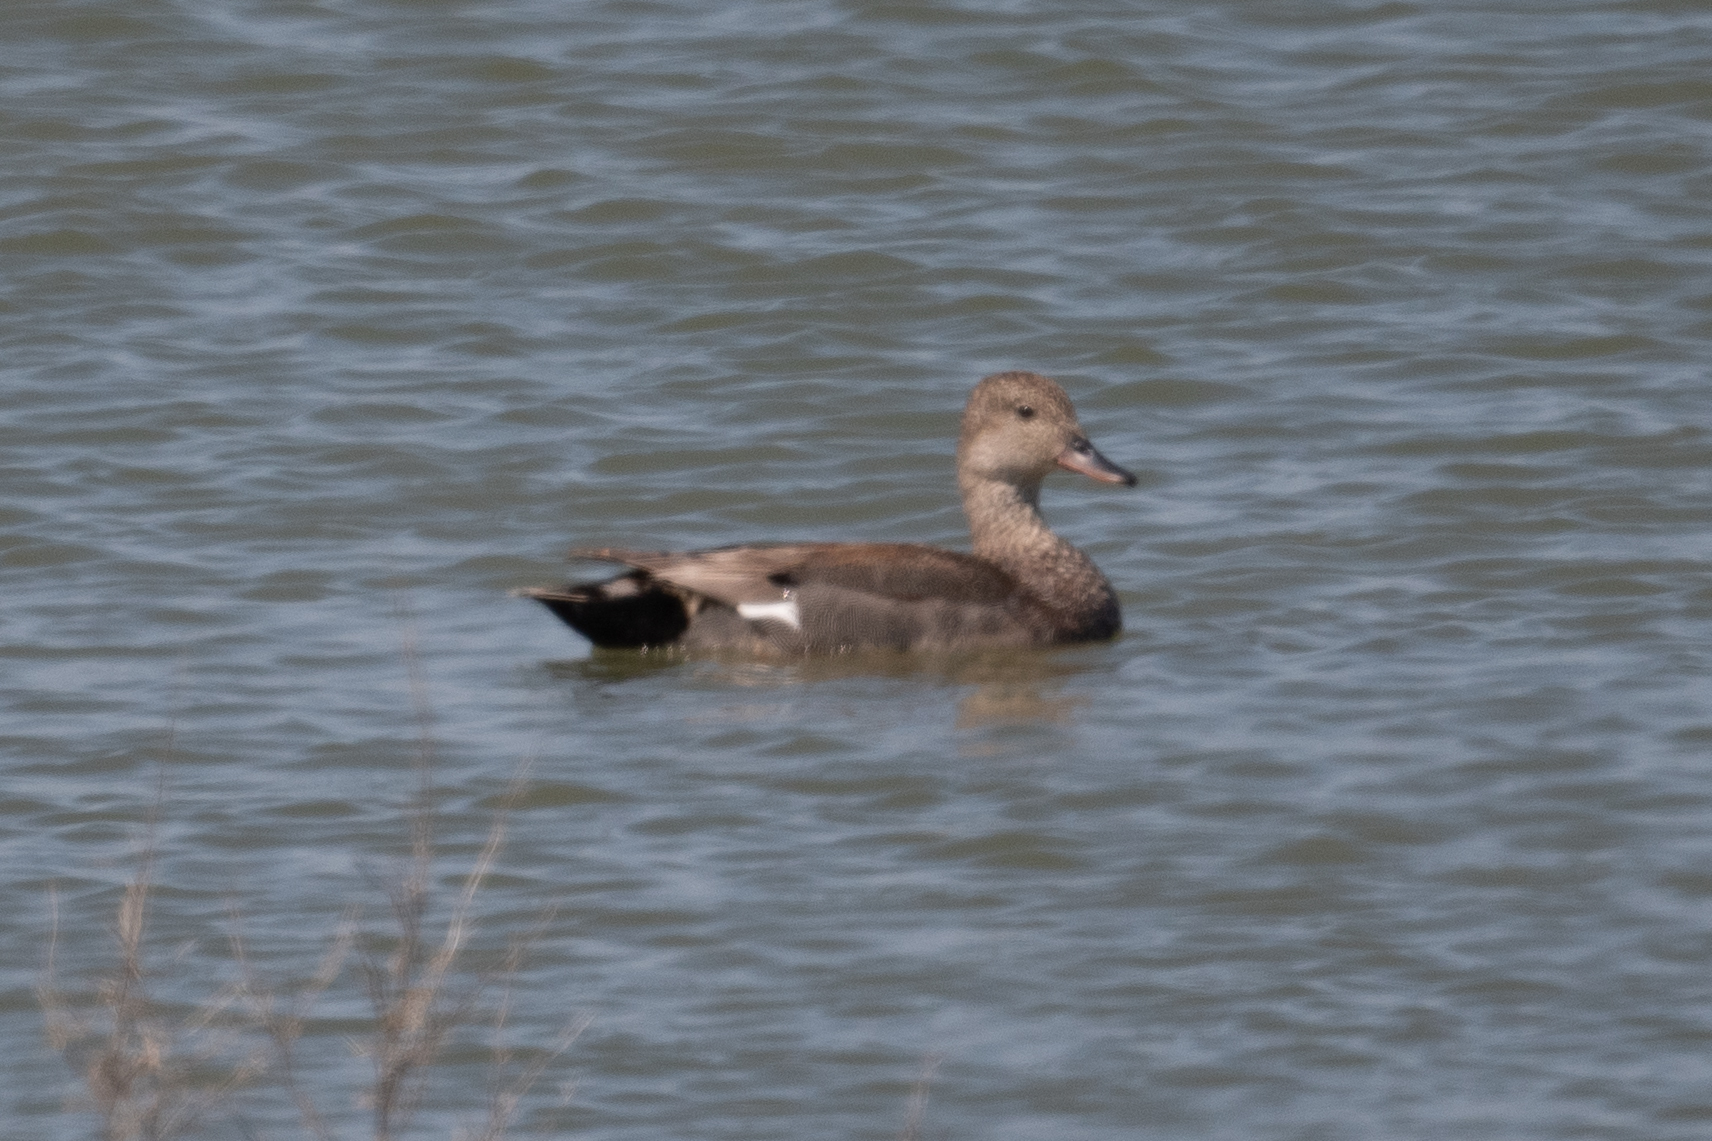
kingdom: Animalia
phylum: Chordata
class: Aves
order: Anseriformes
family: Anatidae
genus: Mareca
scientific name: Mareca strepera
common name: Gadwall
